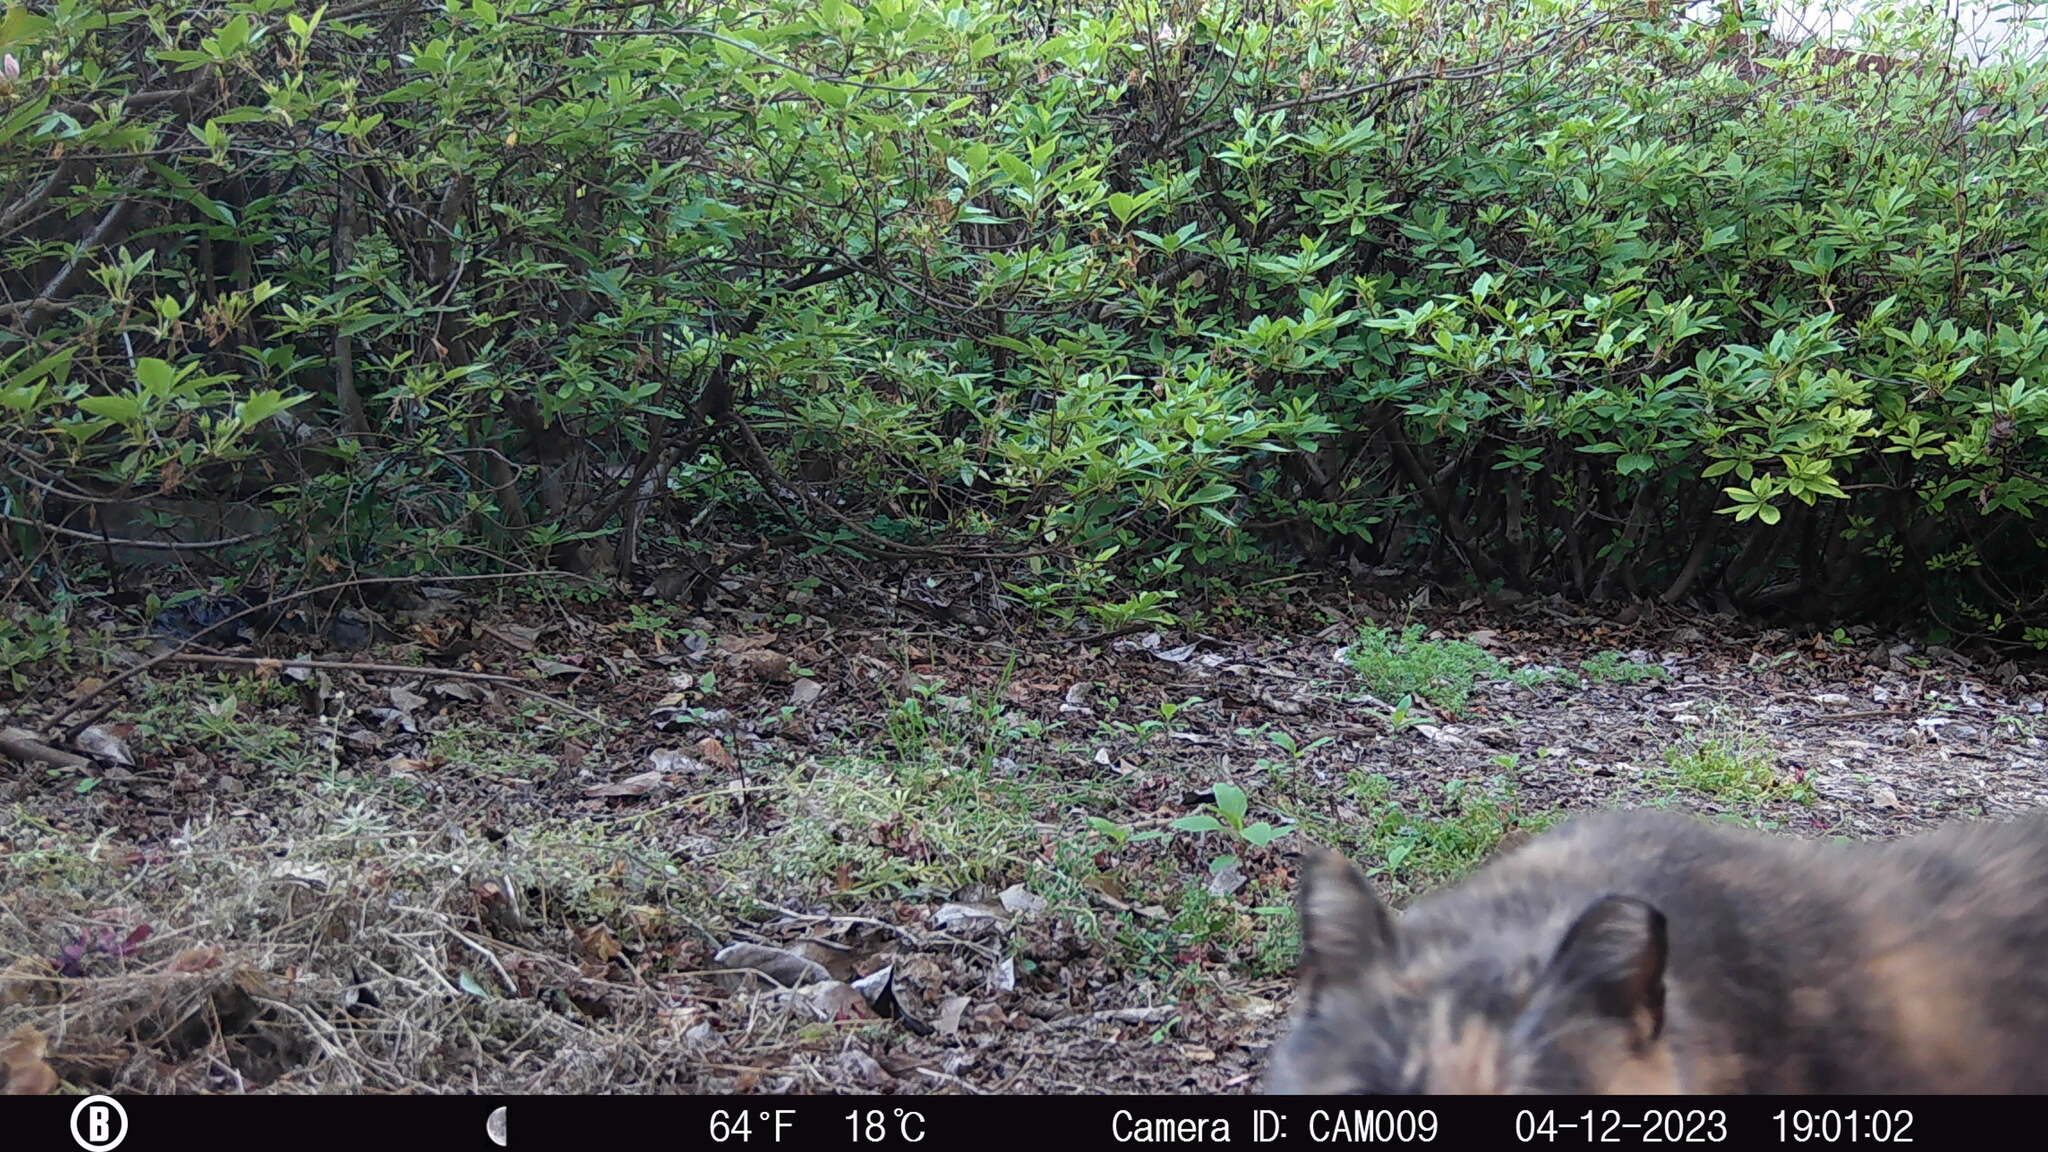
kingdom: Animalia
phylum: Chordata
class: Mammalia
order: Carnivora
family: Felidae
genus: Felis
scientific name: Felis catus
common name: Domestic cat
